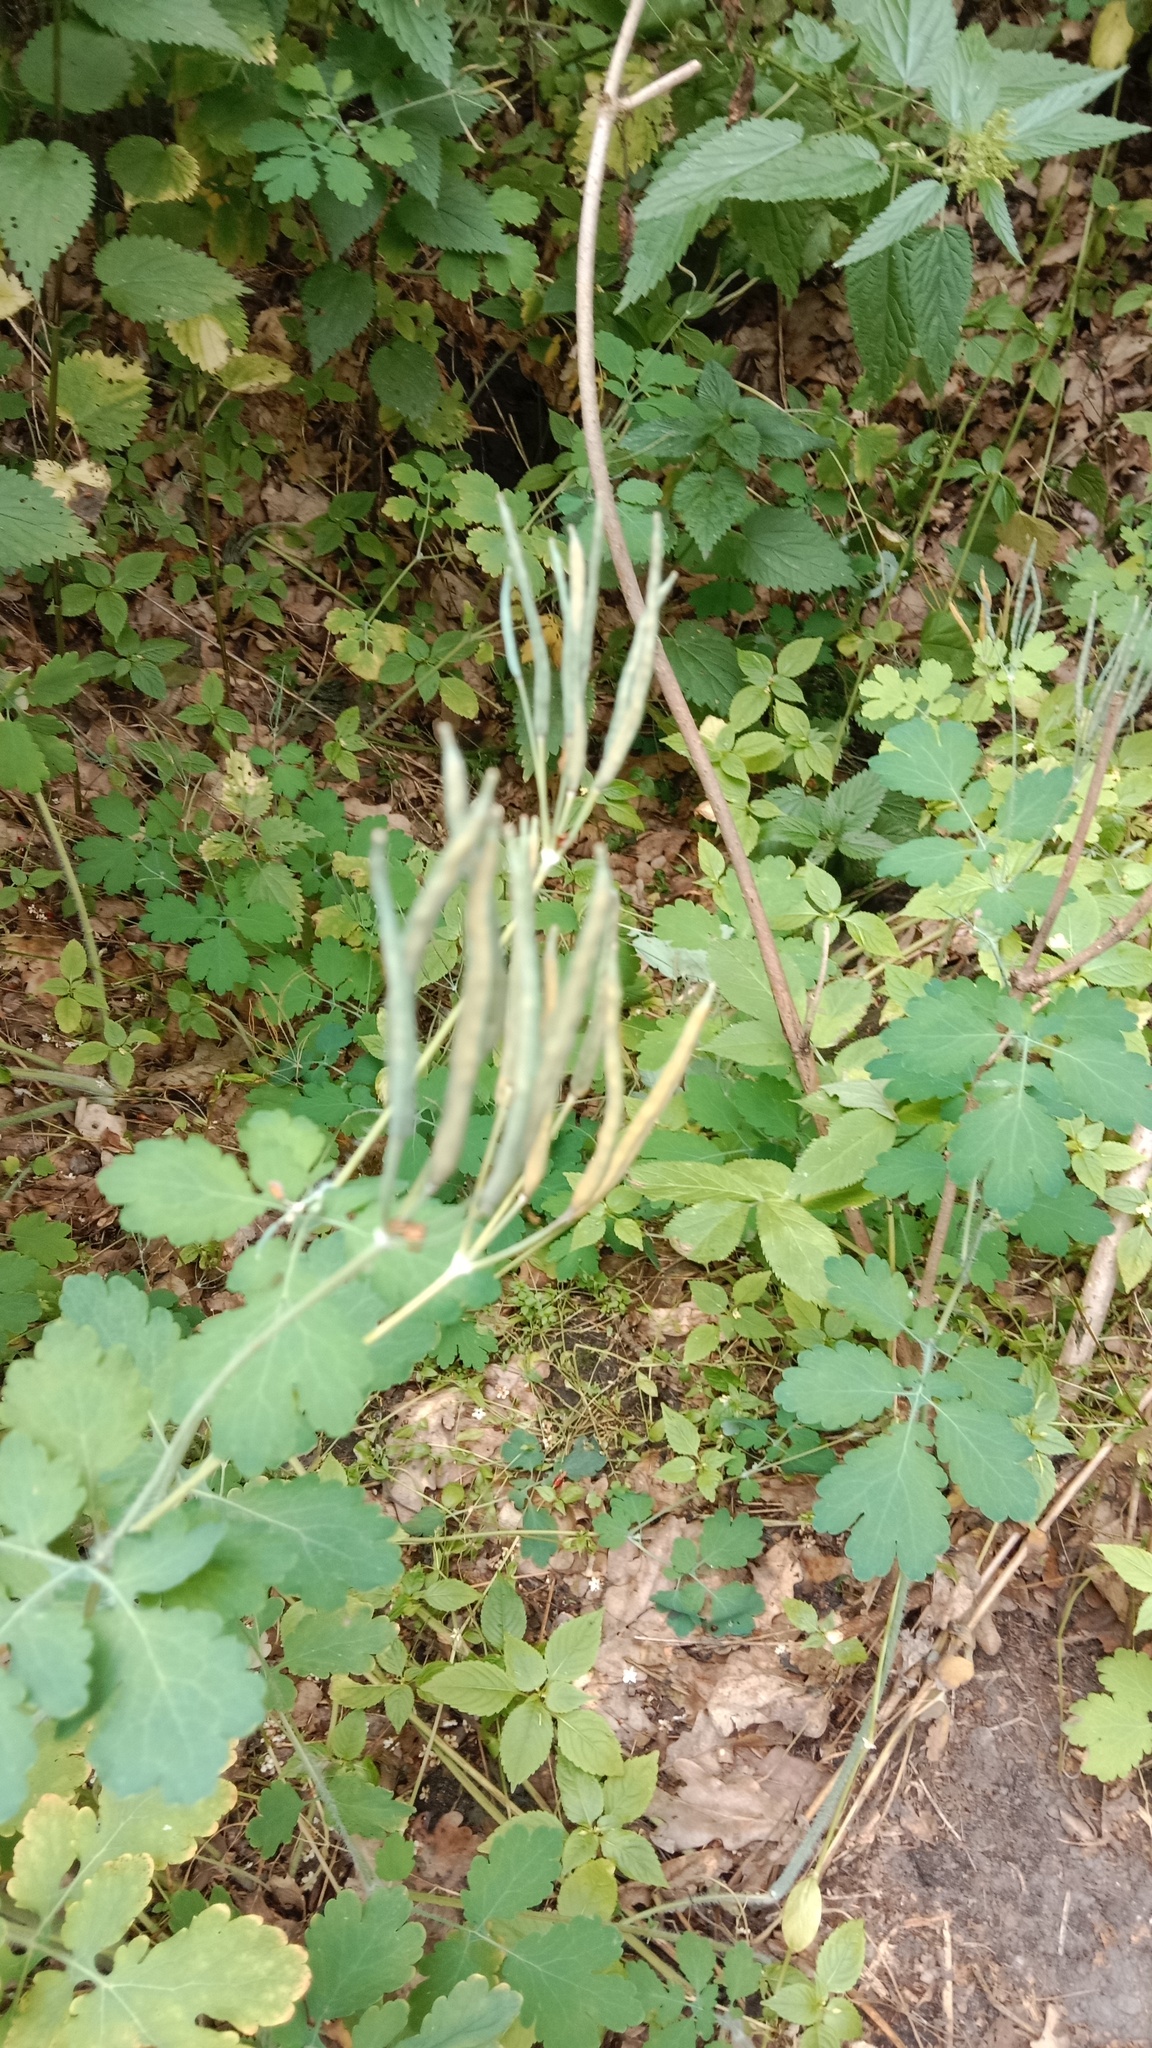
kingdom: Plantae
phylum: Tracheophyta
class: Magnoliopsida
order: Ranunculales
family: Papaveraceae
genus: Chelidonium
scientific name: Chelidonium majus
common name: Greater celandine
